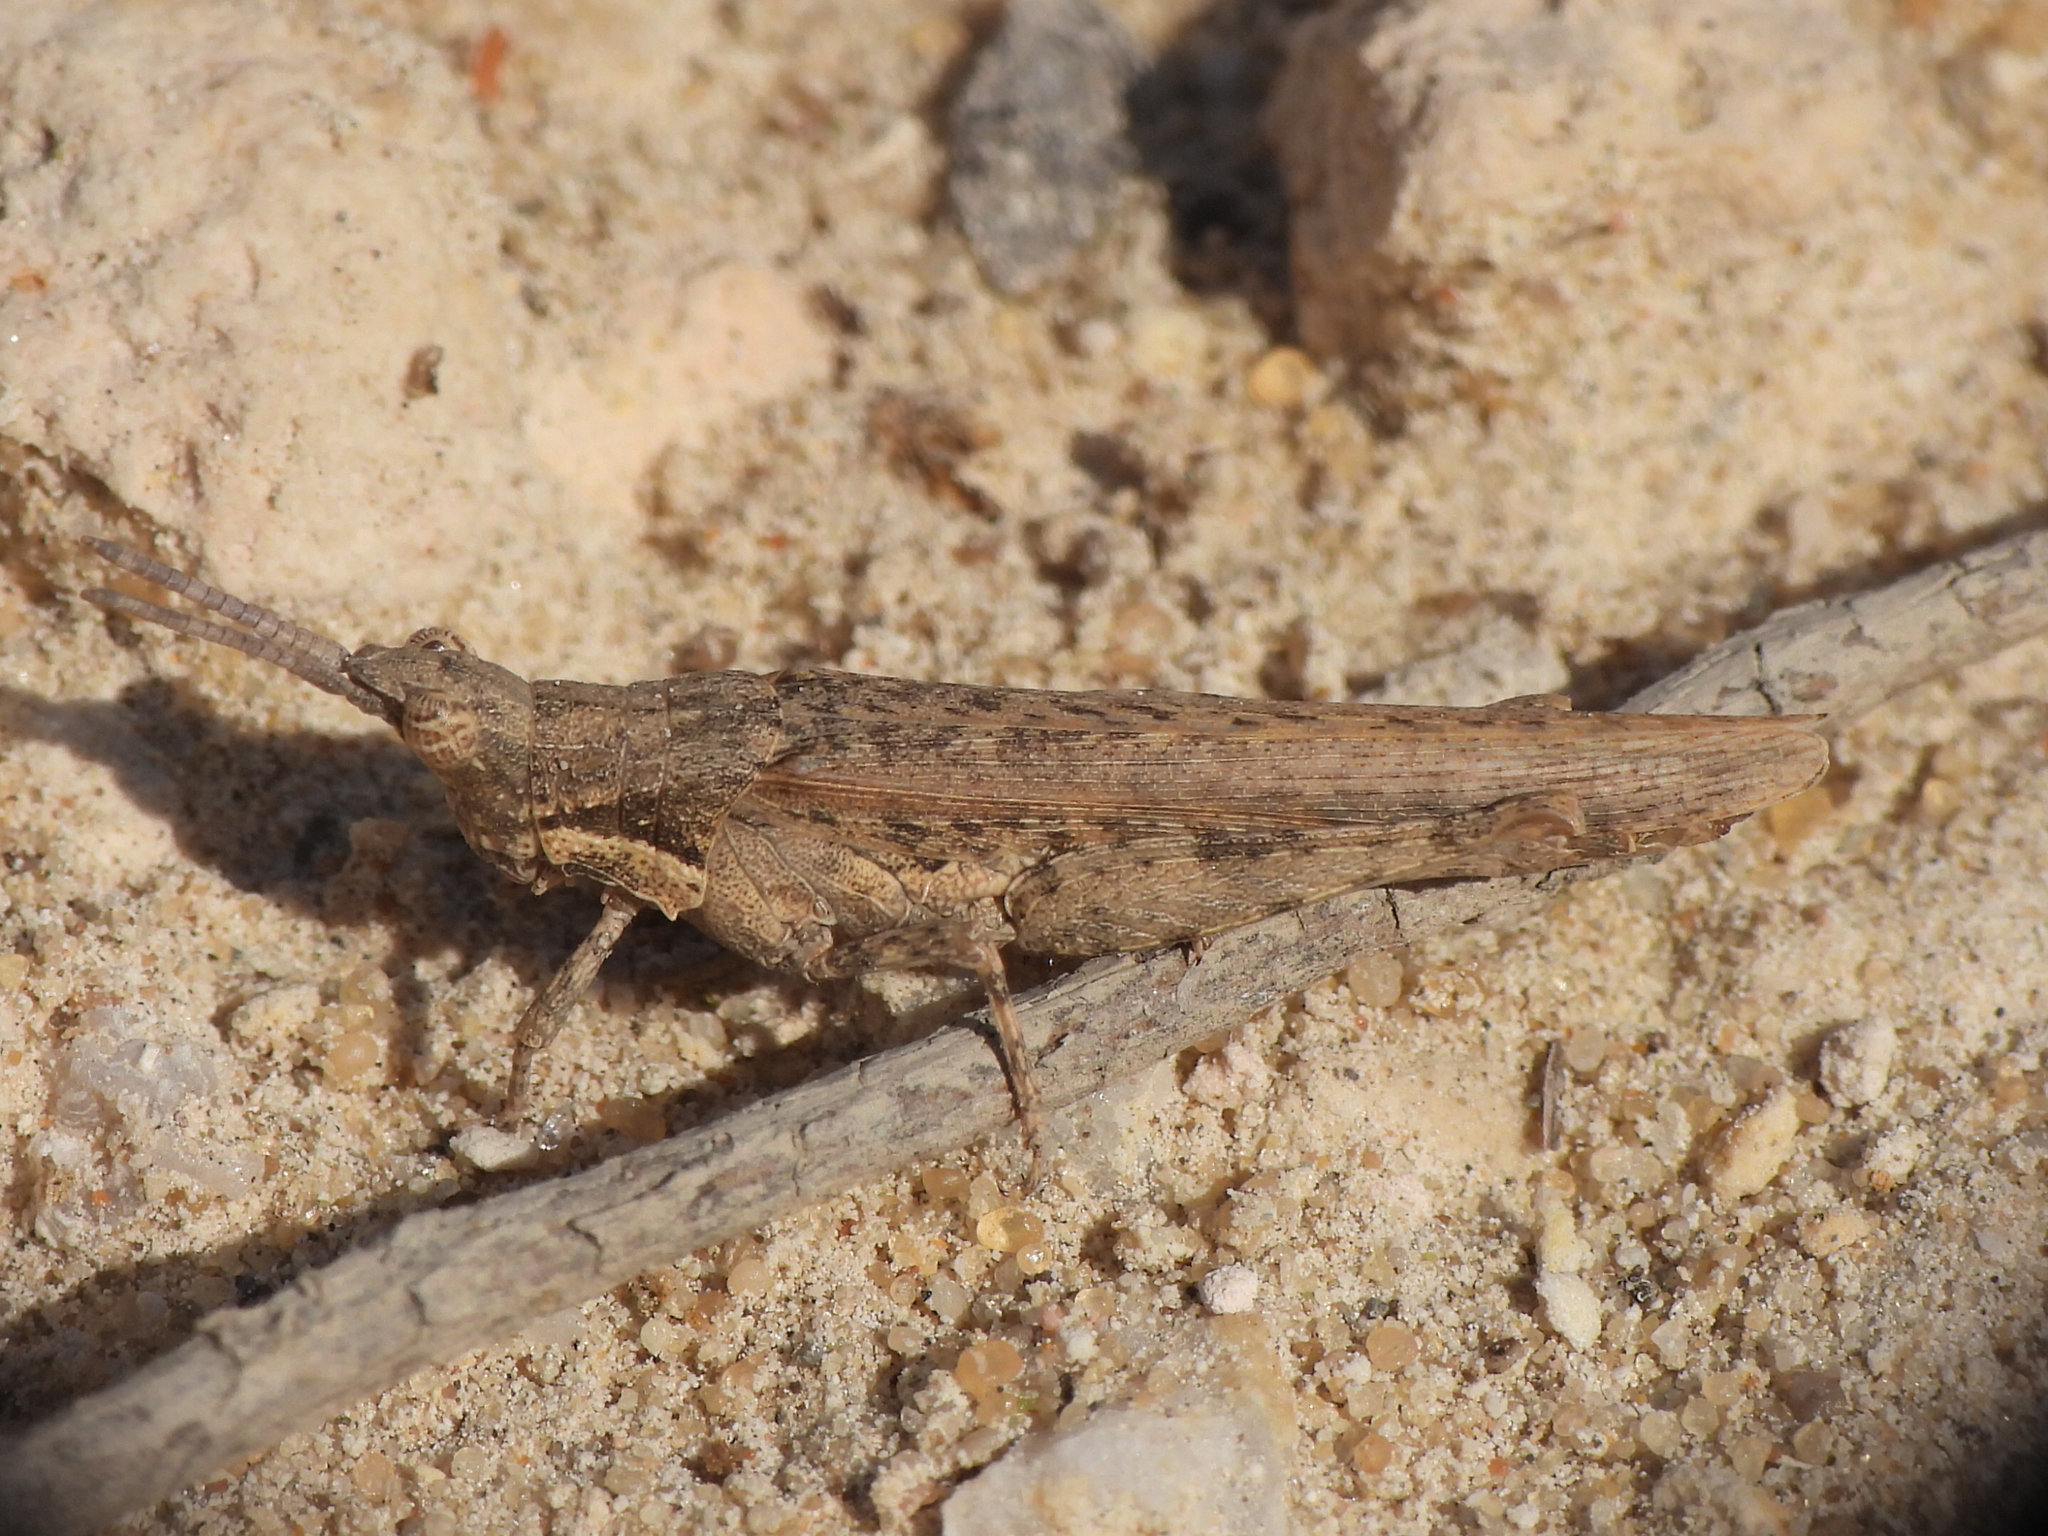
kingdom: Animalia
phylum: Arthropoda
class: Insecta
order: Orthoptera
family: Pyrgomorphidae
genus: Pyrgomorpha
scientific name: Pyrgomorpha conica
